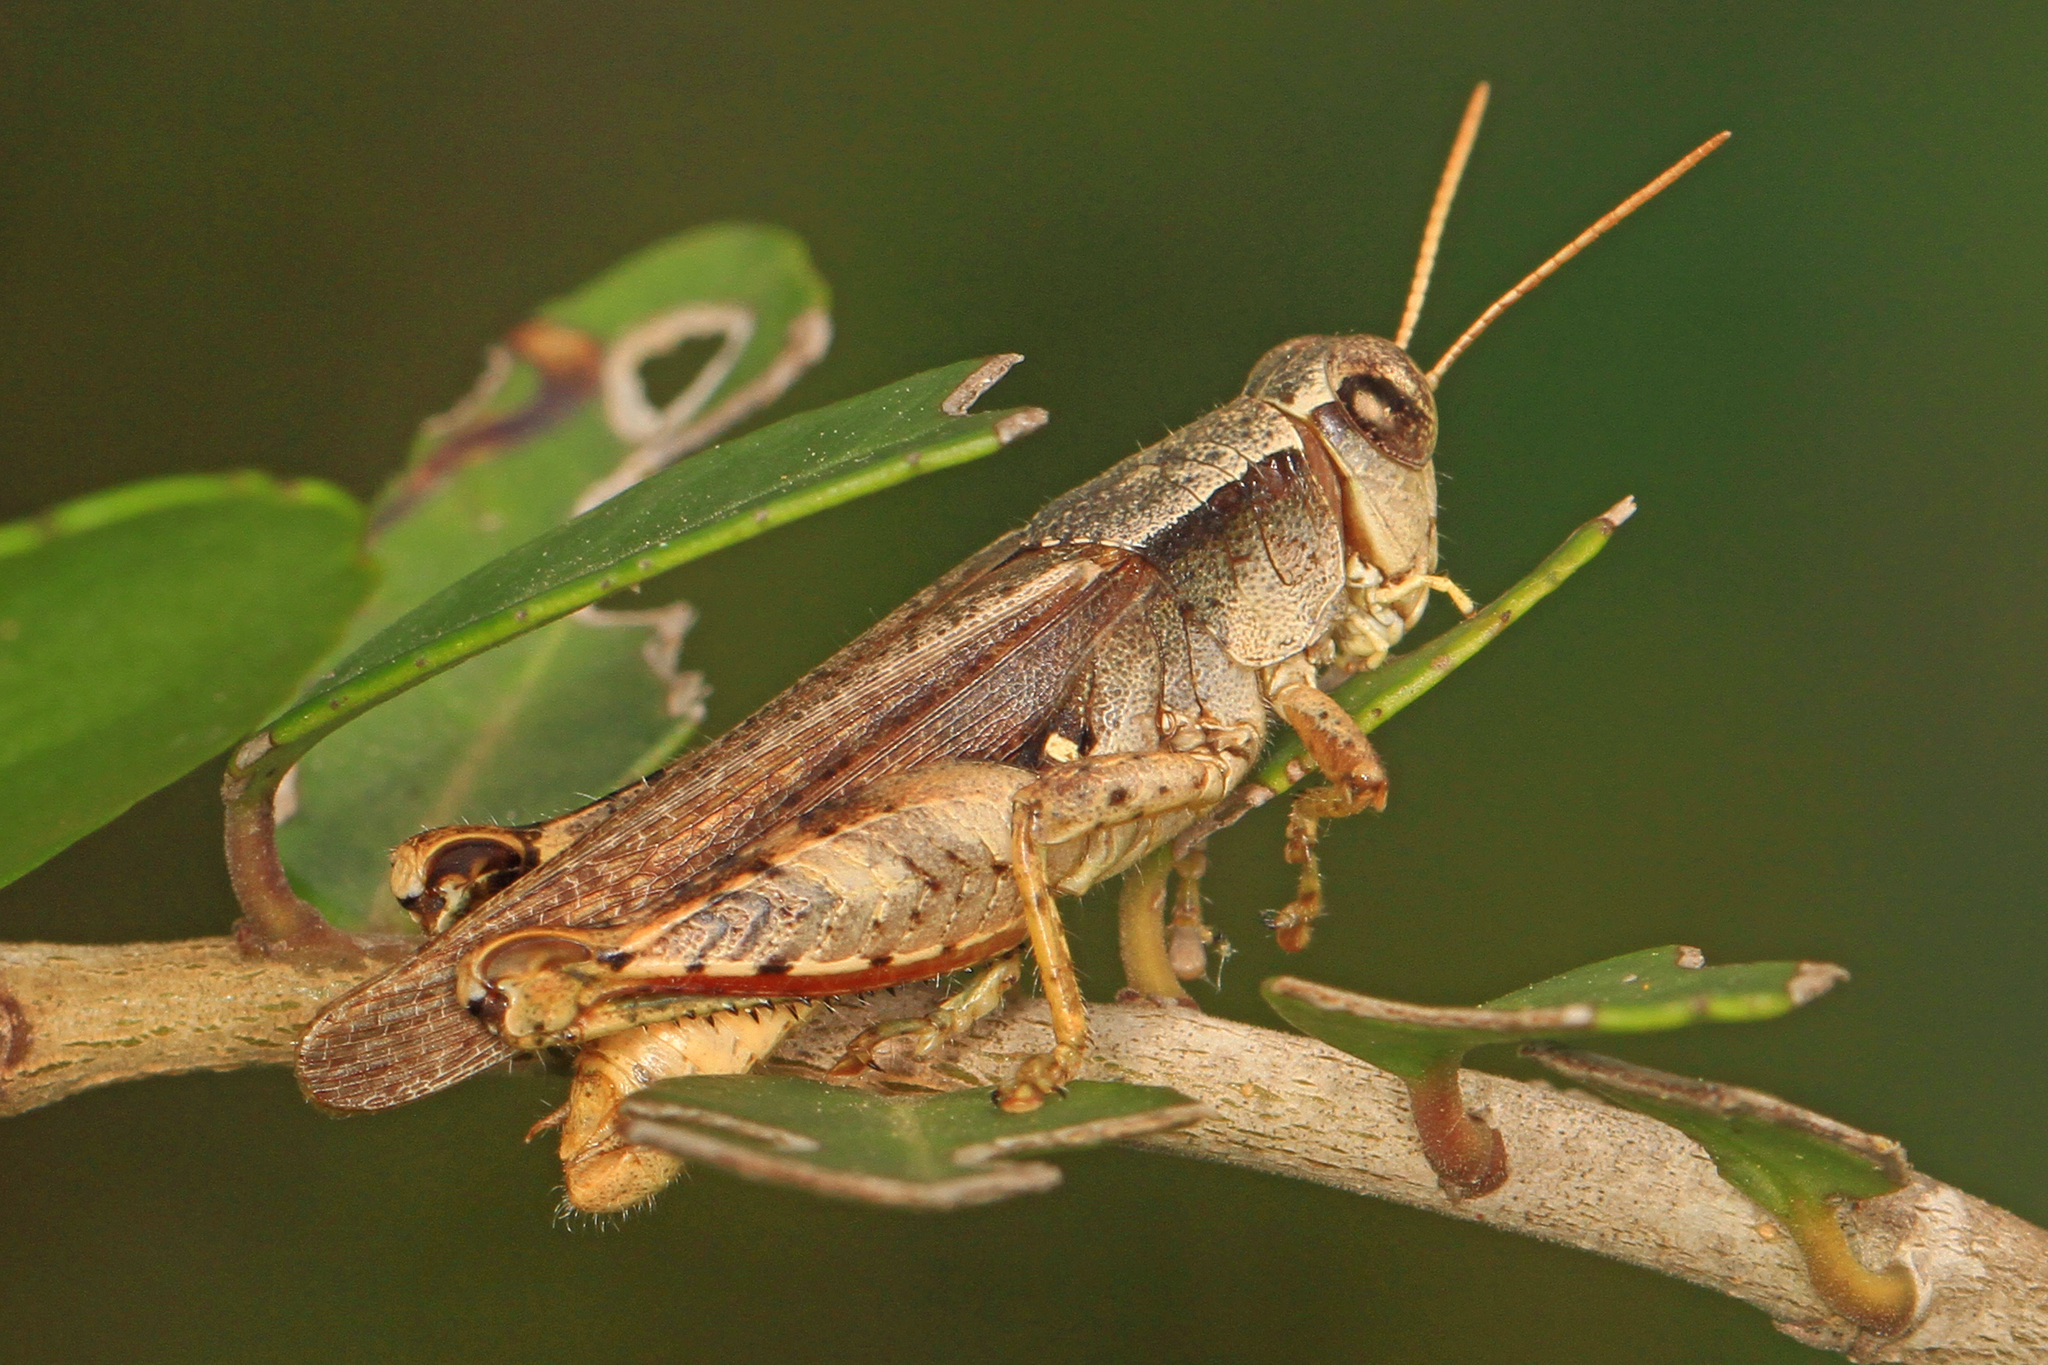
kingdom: Animalia
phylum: Arthropoda
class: Insecta
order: Orthoptera
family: Acrididae
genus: Aidemona
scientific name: Aidemona azteca
